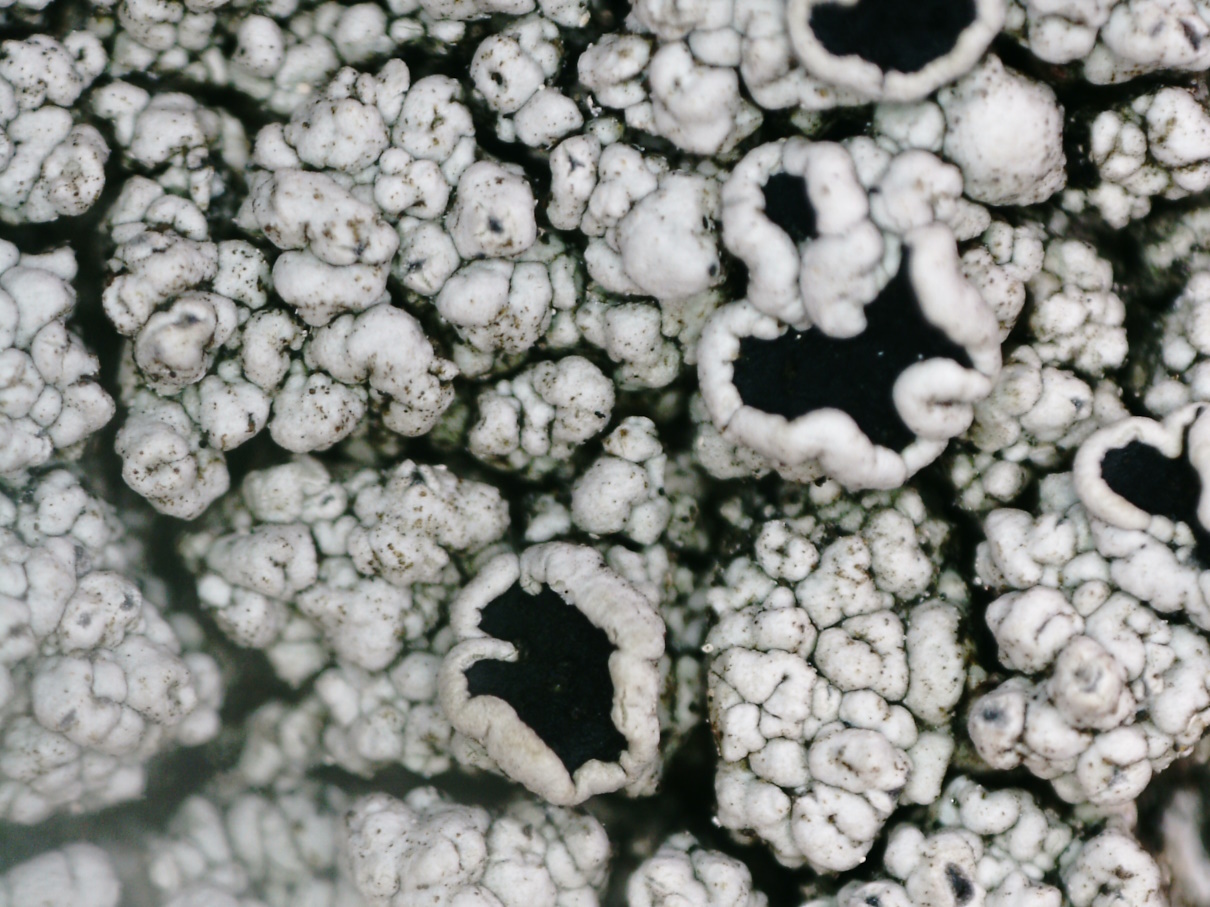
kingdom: Fungi
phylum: Ascomycota
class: Lecanoromycetes
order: Lecanorales
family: Tephromelataceae
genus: Tephromela
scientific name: Tephromela atra
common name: Black shields
